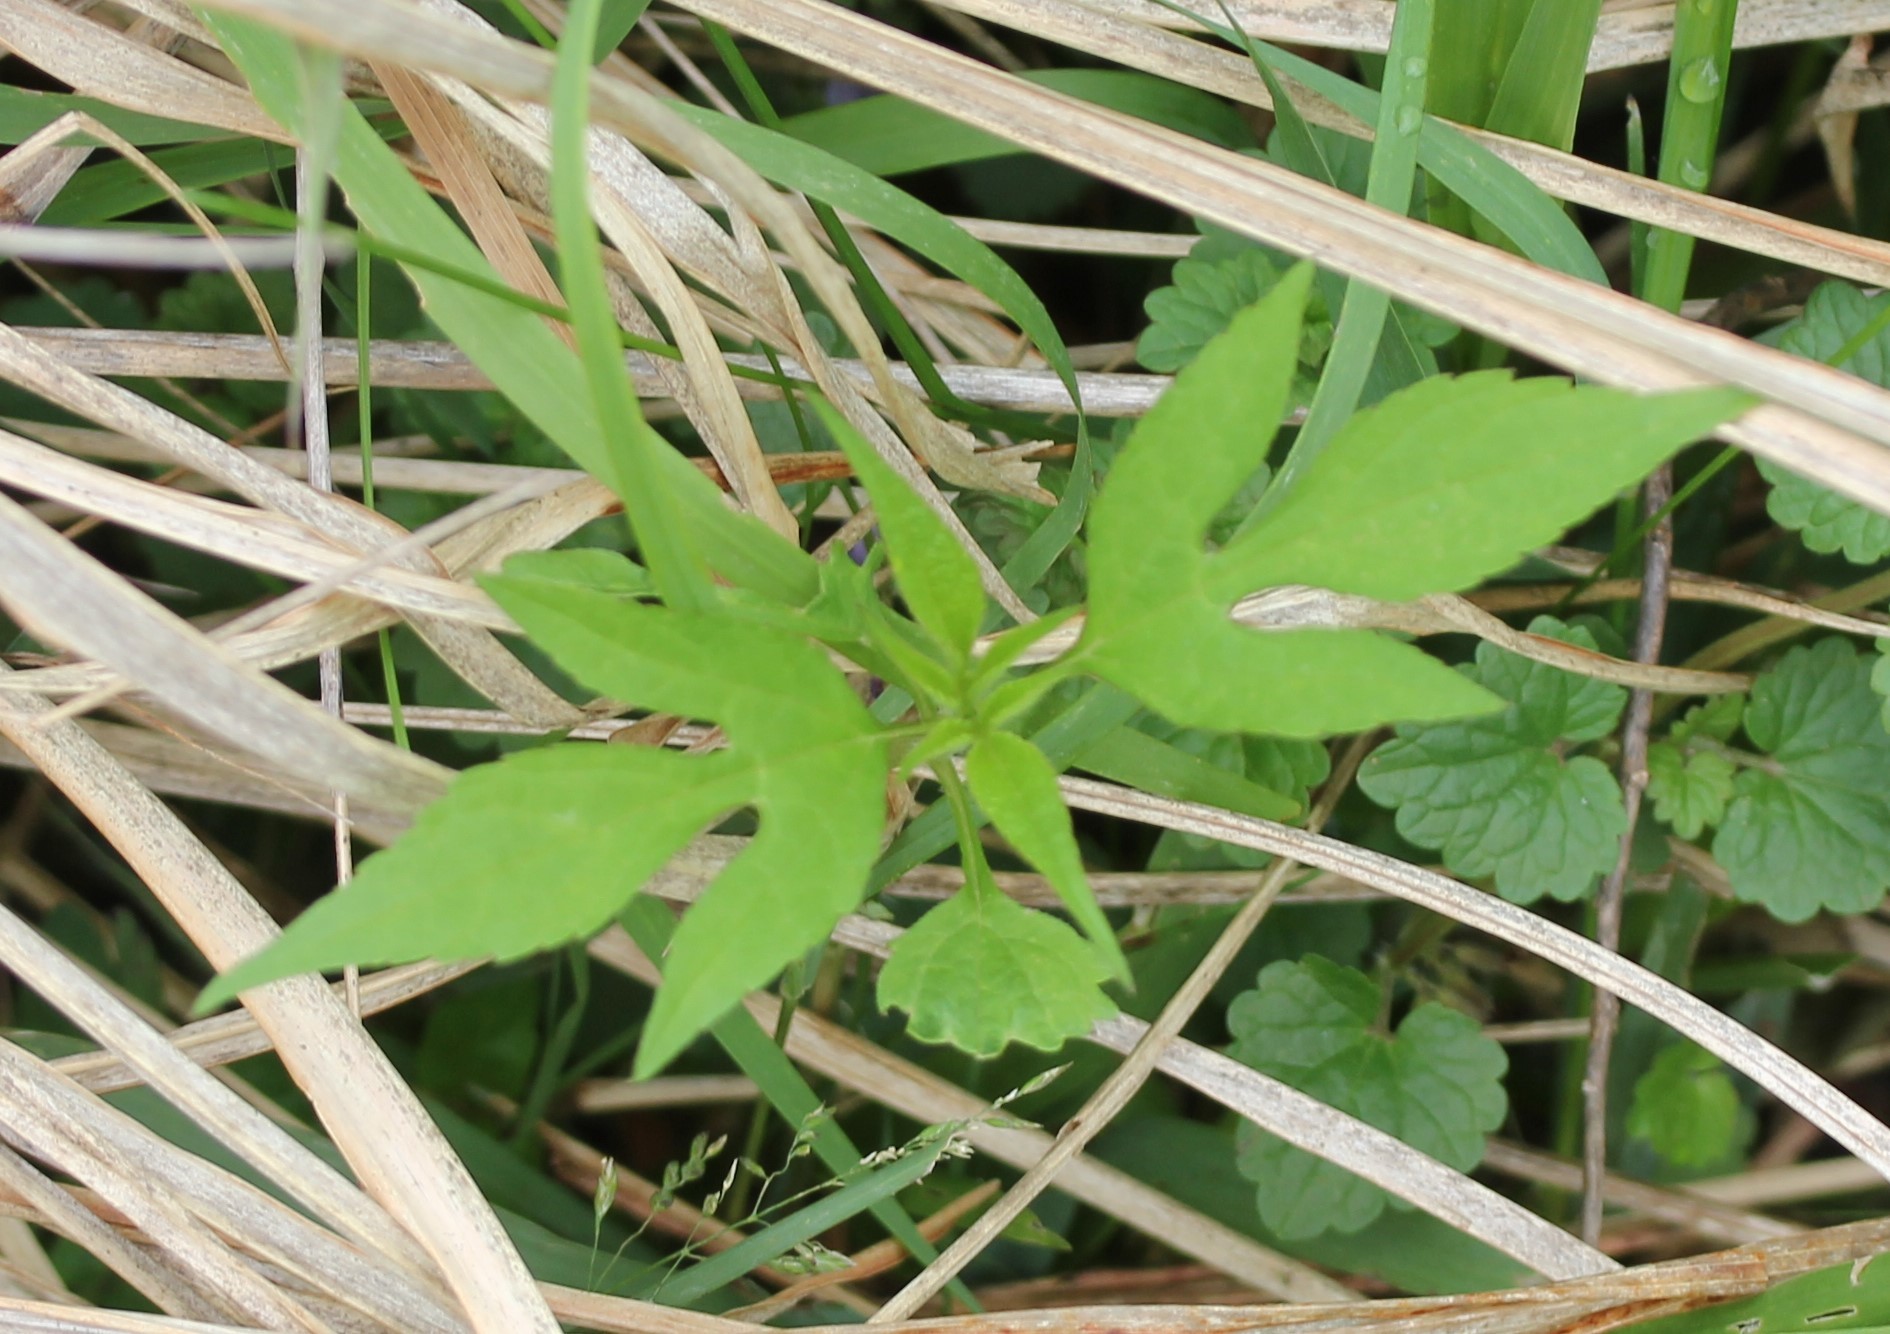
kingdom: Plantae
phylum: Tracheophyta
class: Magnoliopsida
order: Asterales
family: Asteraceae
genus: Ambrosia
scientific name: Ambrosia trifida
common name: Giant ragweed
